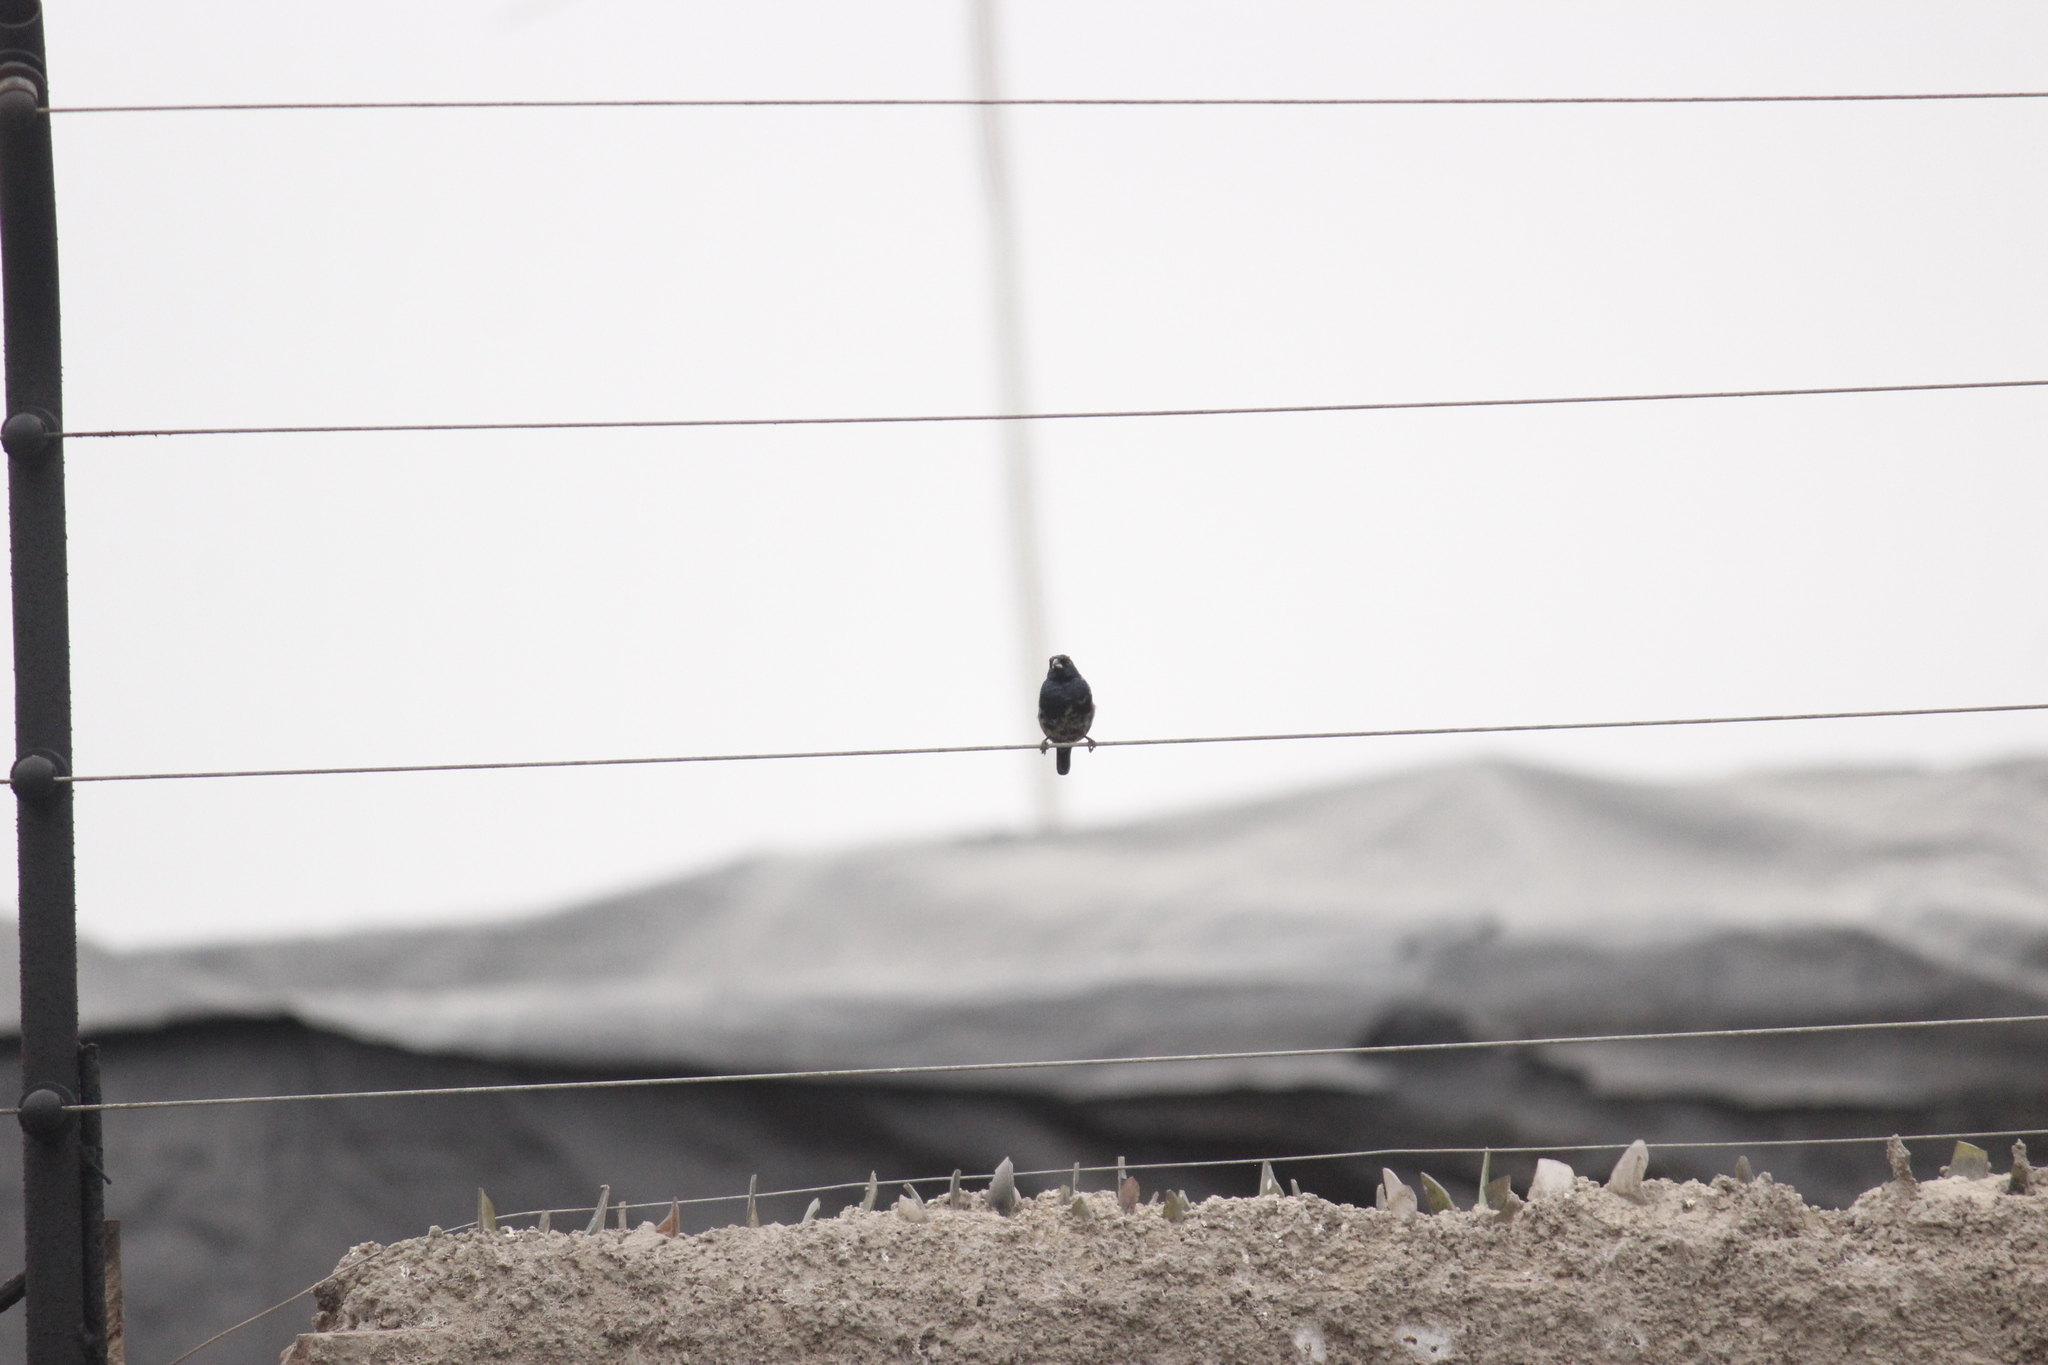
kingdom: Animalia
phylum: Chordata
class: Aves
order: Passeriformes
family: Thraupidae
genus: Volatinia
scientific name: Volatinia jacarina
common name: Blue-black grassquit
